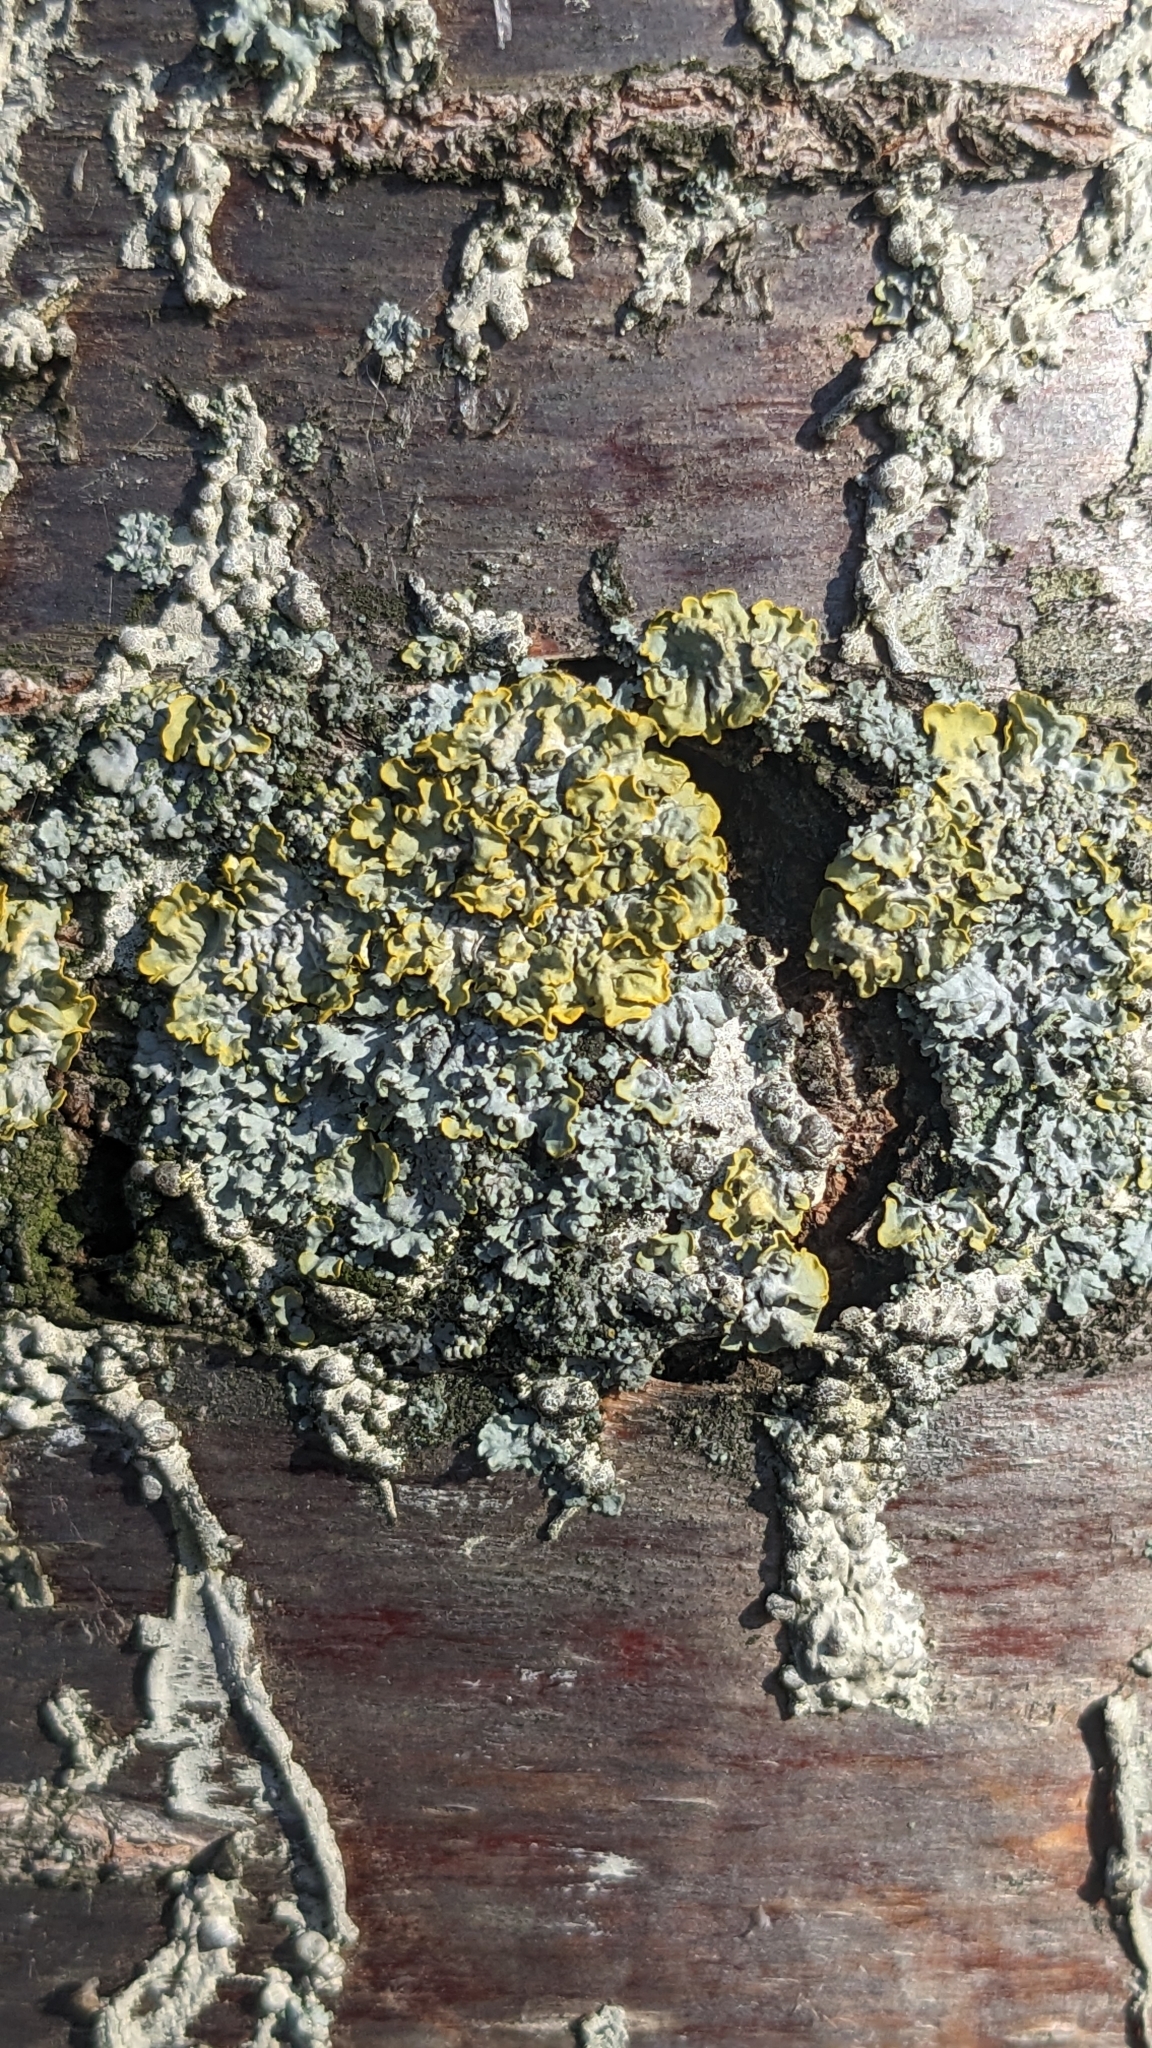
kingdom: Fungi
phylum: Ascomycota
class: Lecanoromycetes
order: Teloschistales
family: Teloschistaceae
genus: Xanthoria
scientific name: Xanthoria parietina
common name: Common orange lichen
